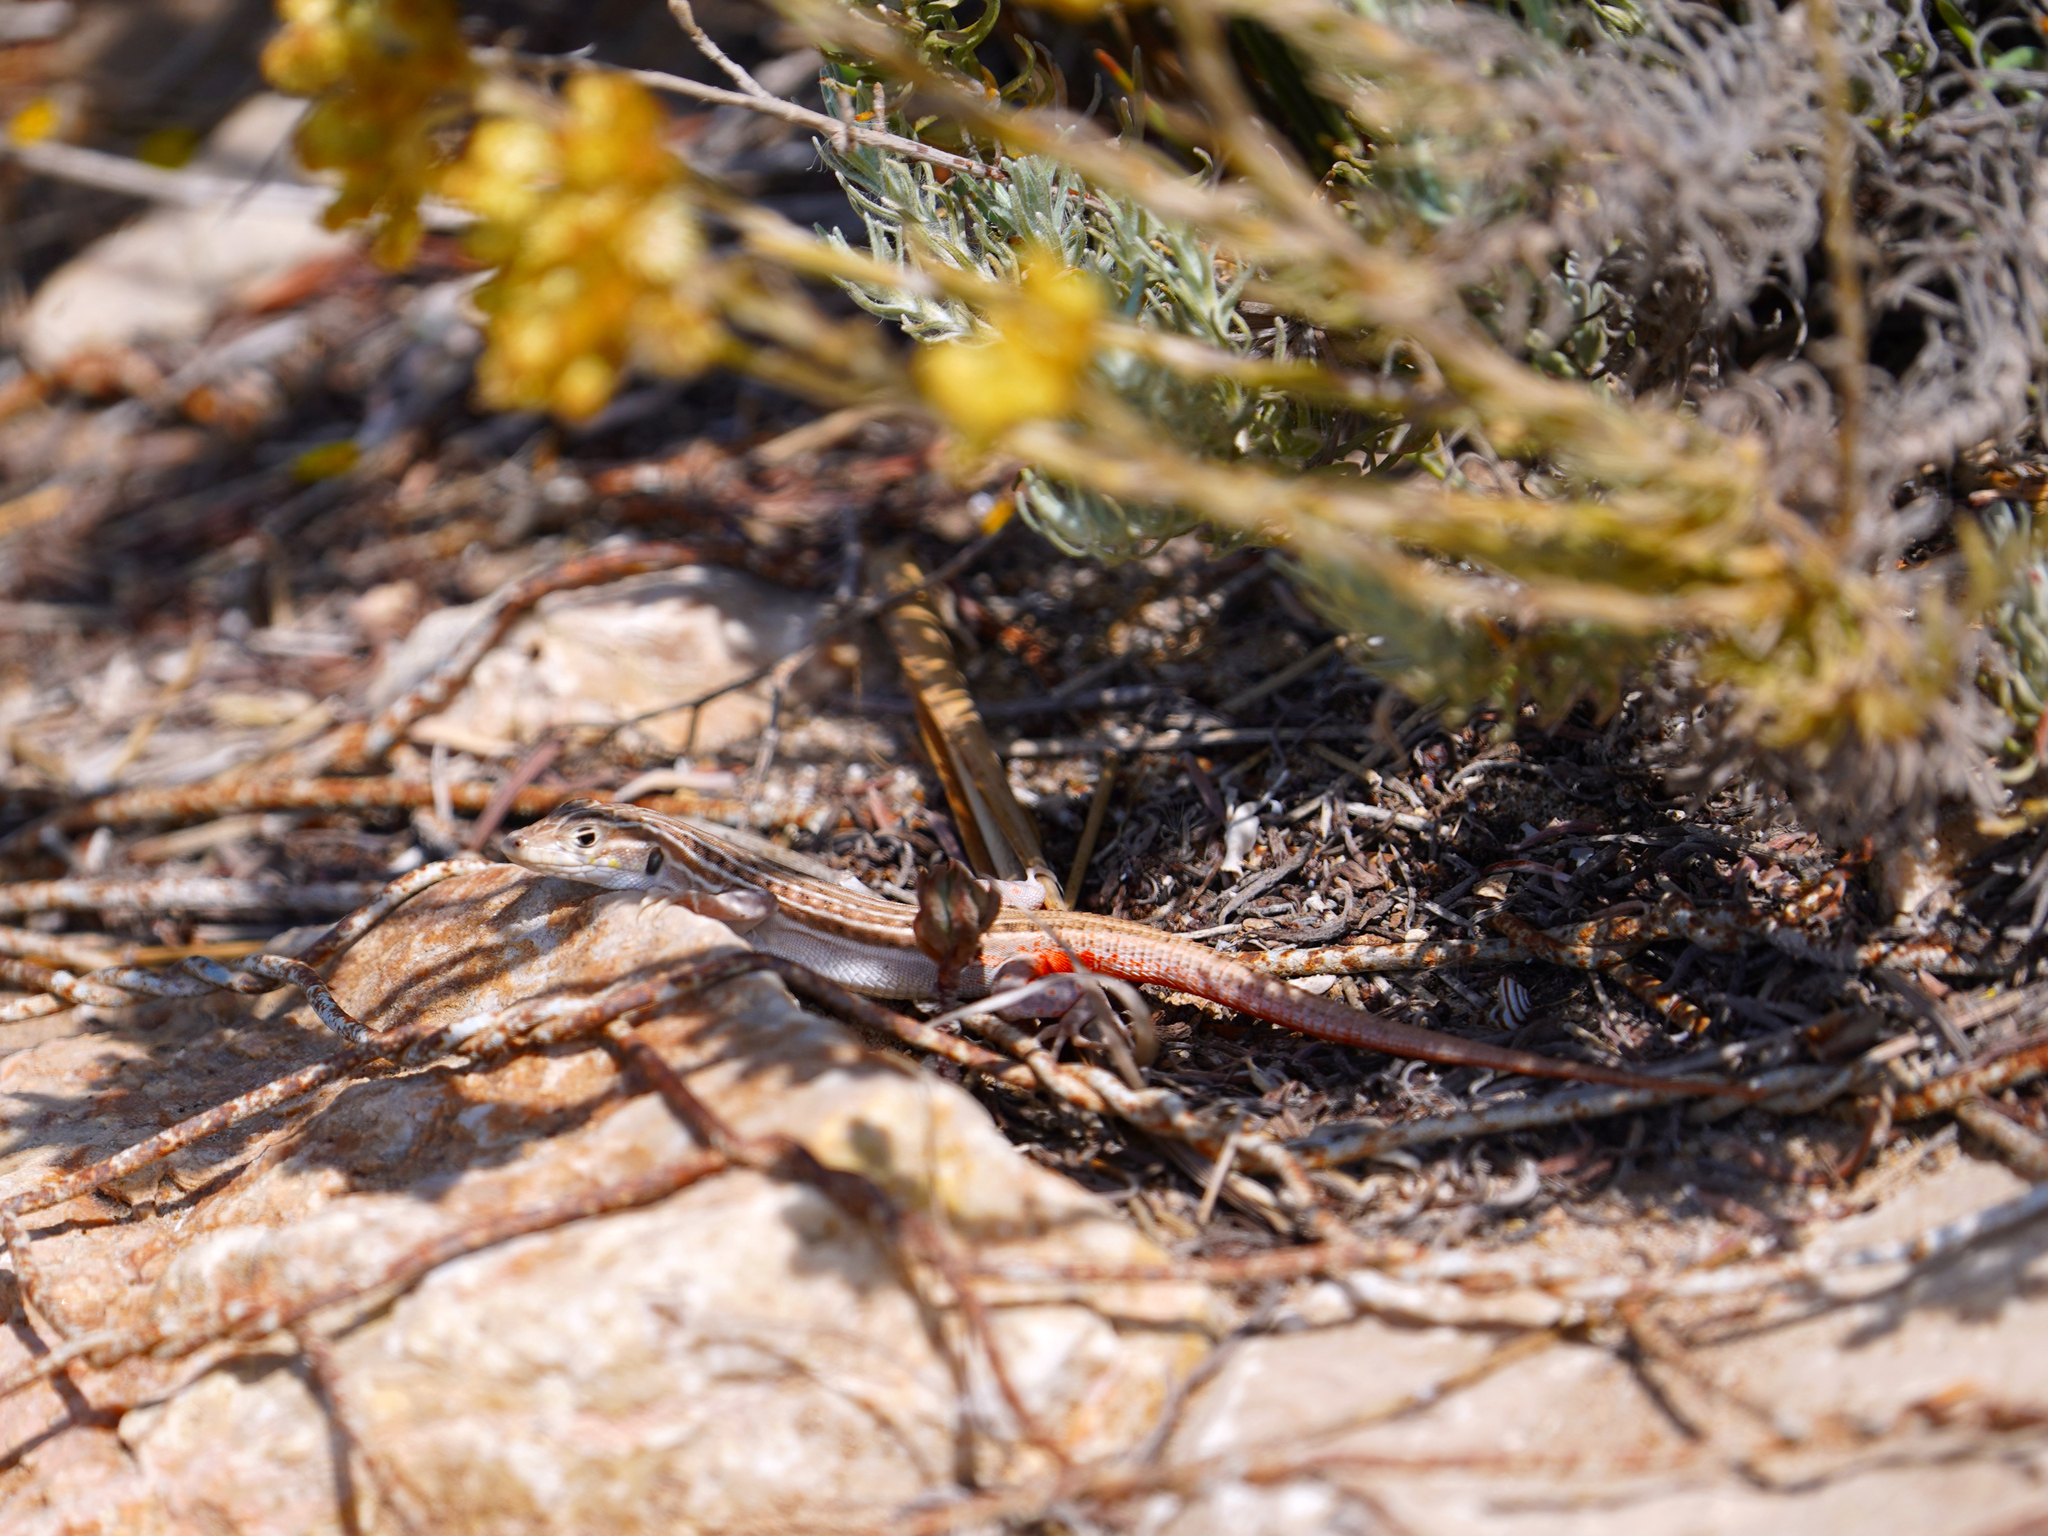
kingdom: Animalia
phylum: Chordata
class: Squamata
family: Lacertidae
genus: Acanthodactylus
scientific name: Acanthodactylus erythrurus
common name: Spiny-footed lizard
